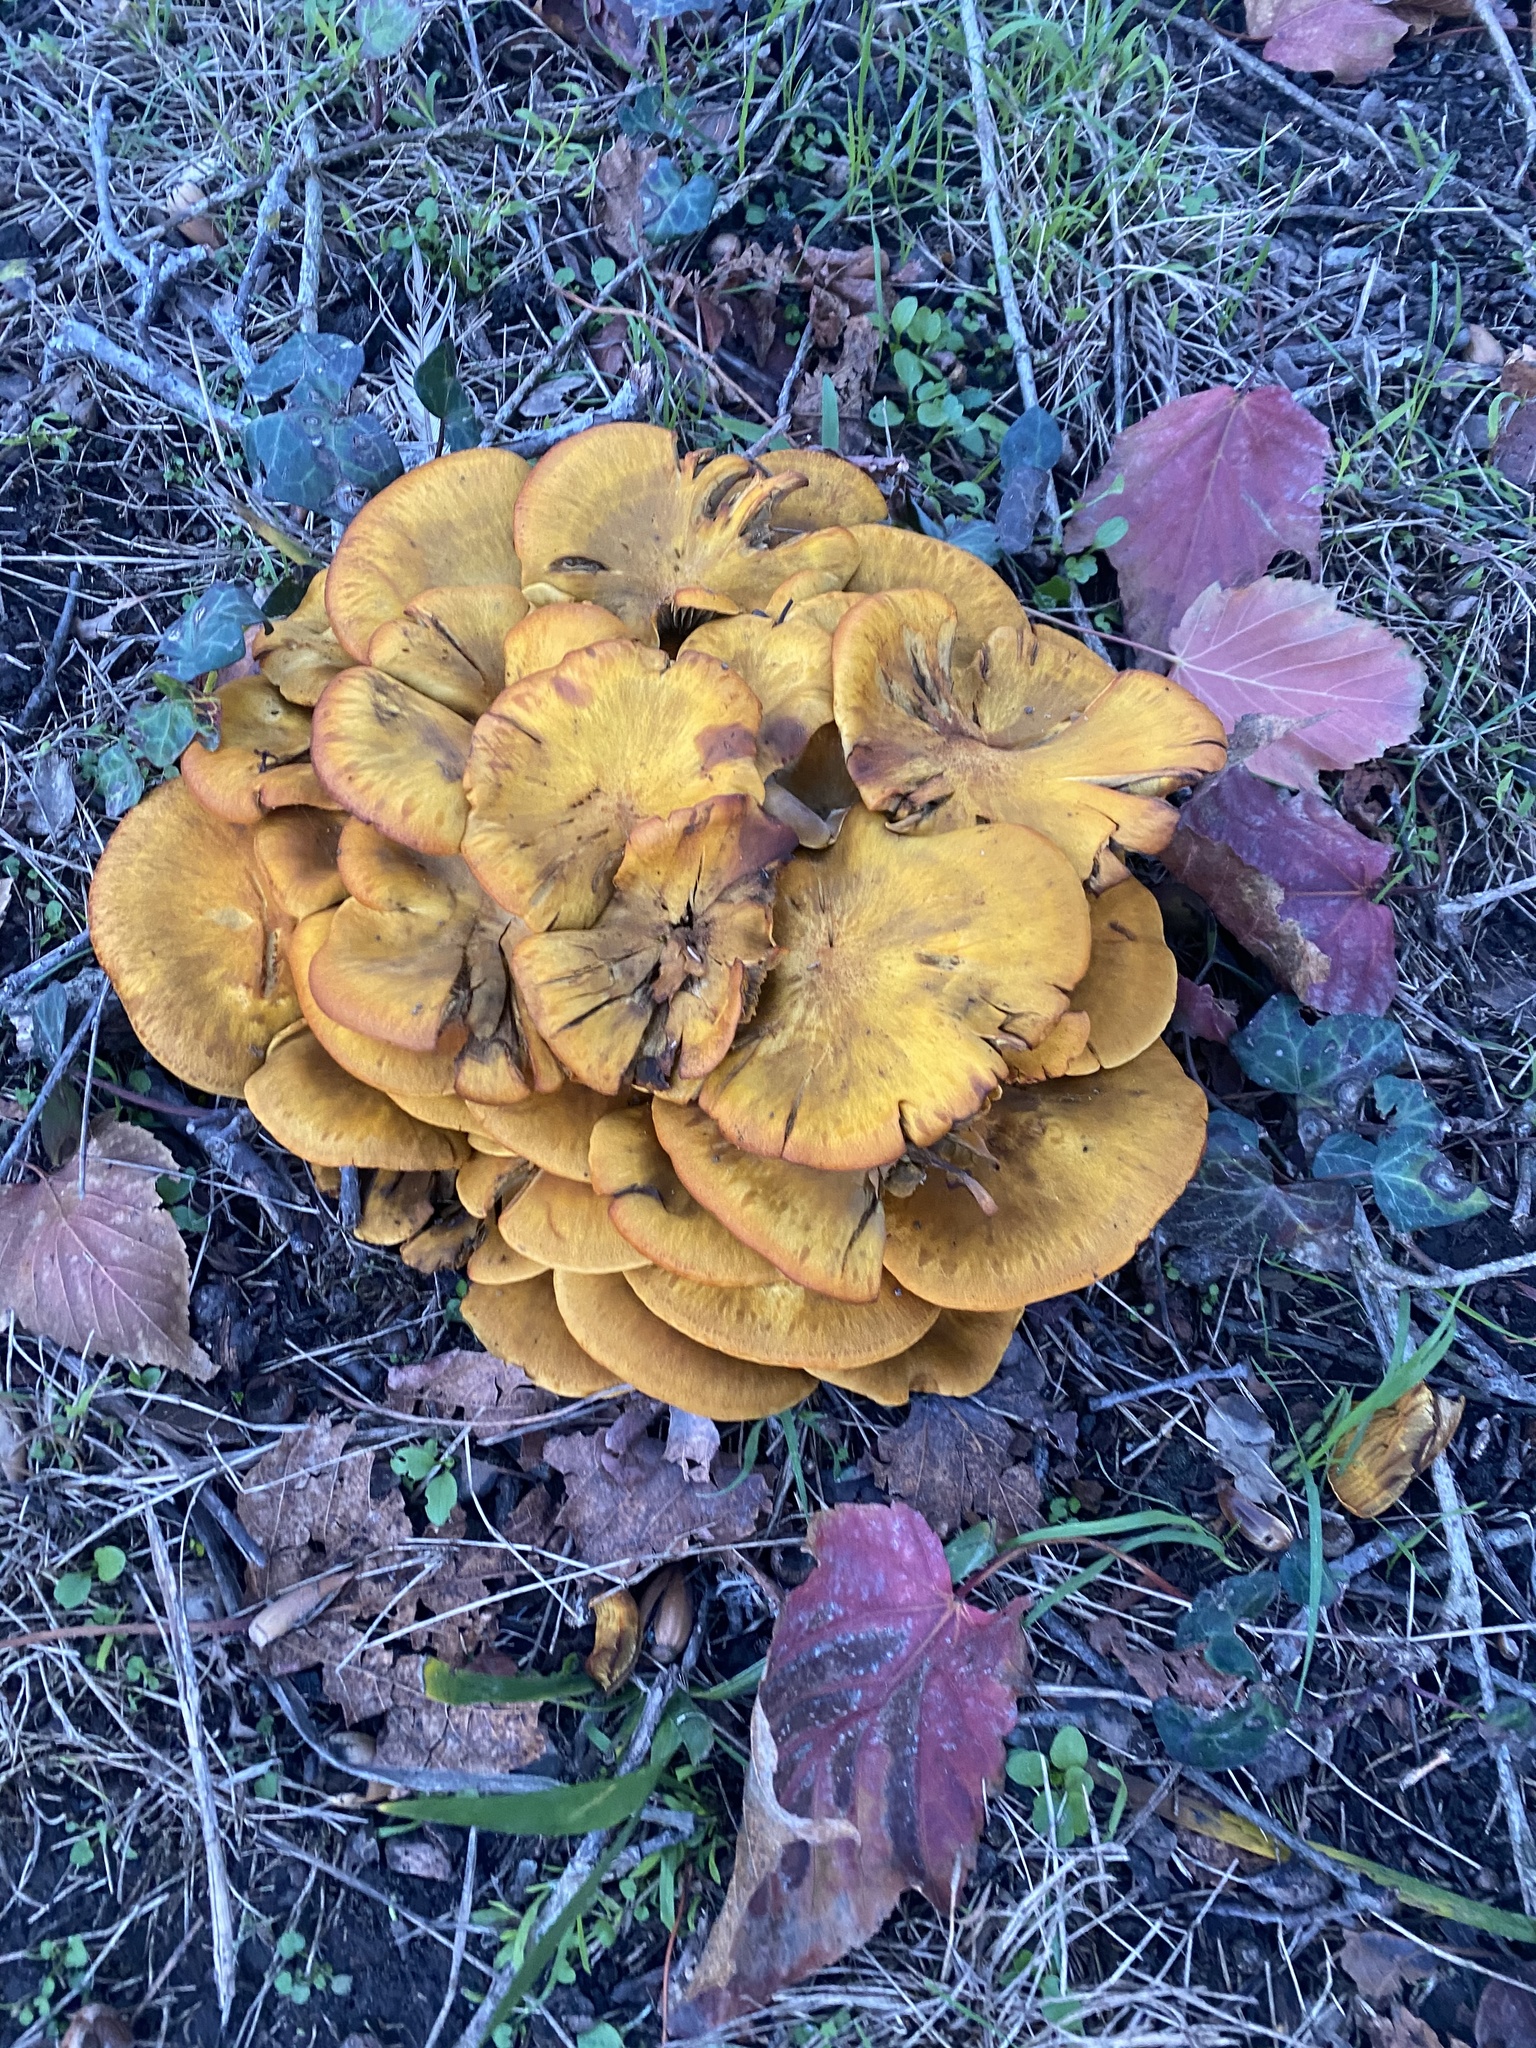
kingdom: Fungi
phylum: Basidiomycota
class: Agaricomycetes
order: Agaricales
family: Omphalotaceae
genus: Omphalotus
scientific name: Omphalotus olivascens
